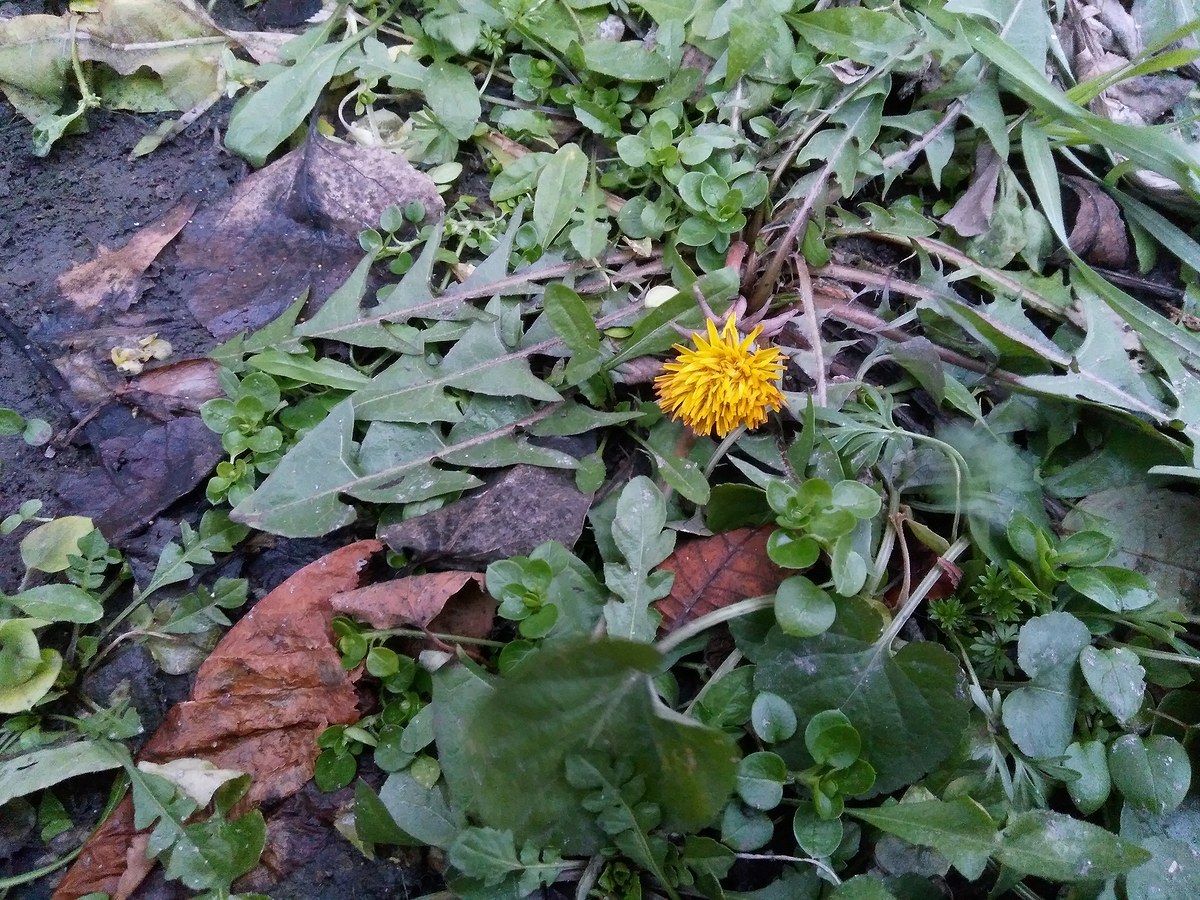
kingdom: Plantae
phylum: Tracheophyta
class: Magnoliopsida
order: Asterales
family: Asteraceae
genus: Taraxacum
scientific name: Taraxacum officinale
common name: Common dandelion
